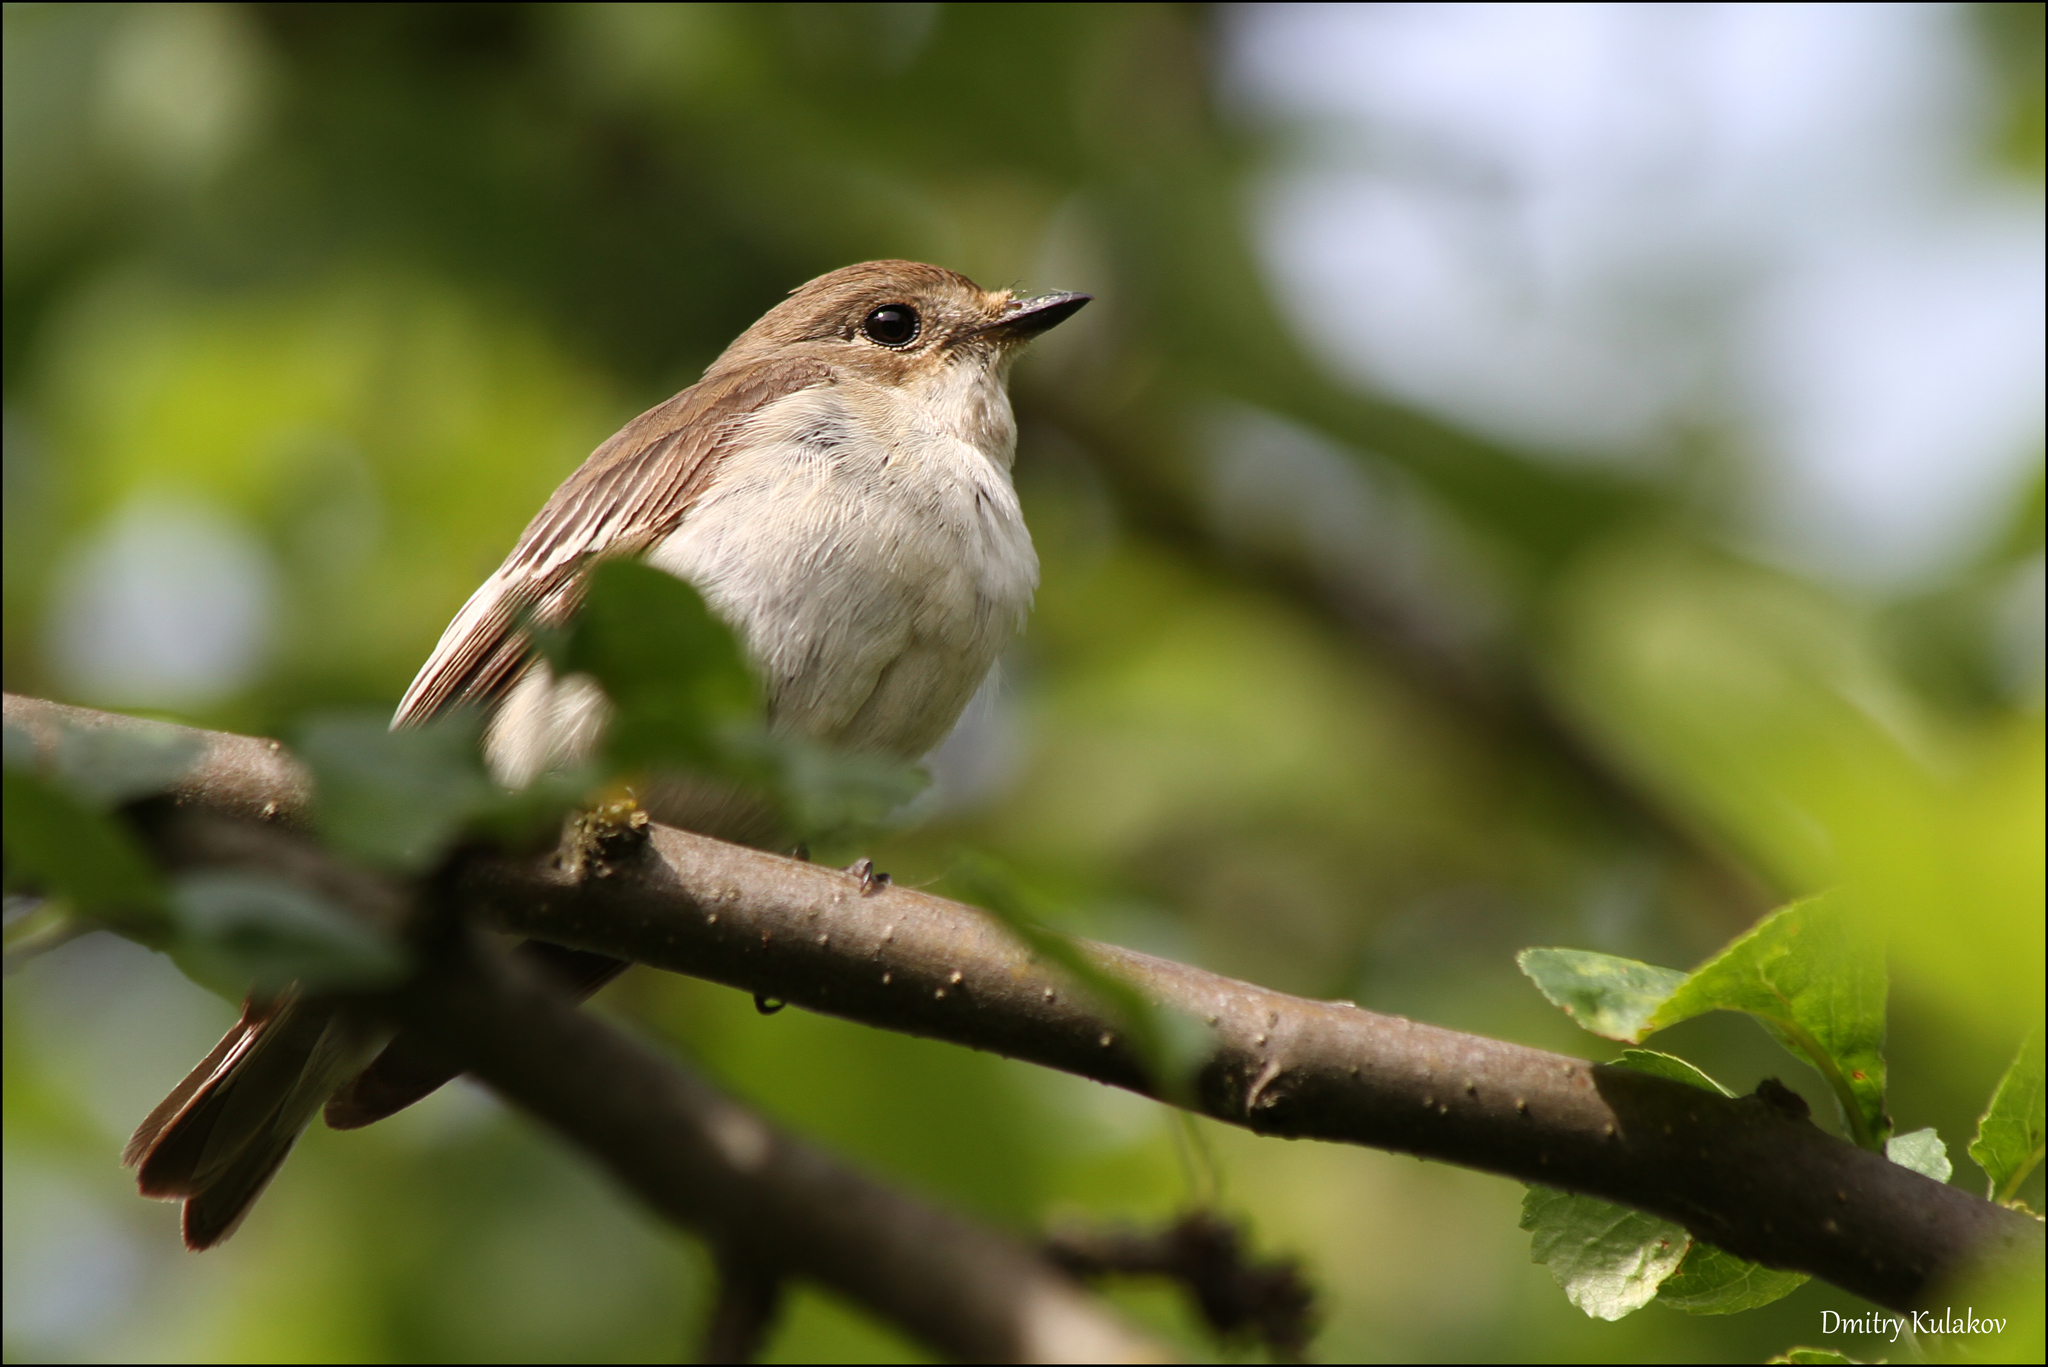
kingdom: Animalia
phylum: Chordata
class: Aves
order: Passeriformes
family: Muscicapidae
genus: Ficedula
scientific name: Ficedula hypoleuca
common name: European pied flycatcher
